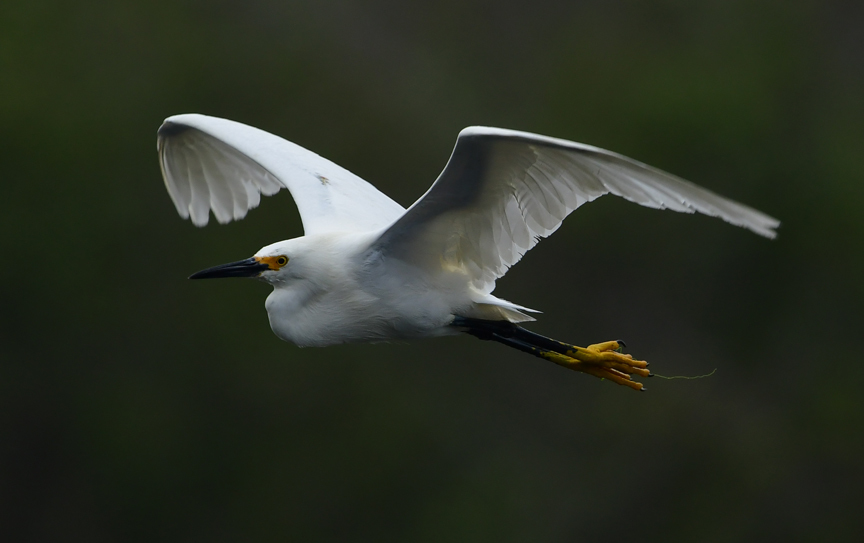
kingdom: Animalia
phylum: Chordata
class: Aves
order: Pelecaniformes
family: Ardeidae
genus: Egretta
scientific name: Egretta thula
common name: Snowy egret
